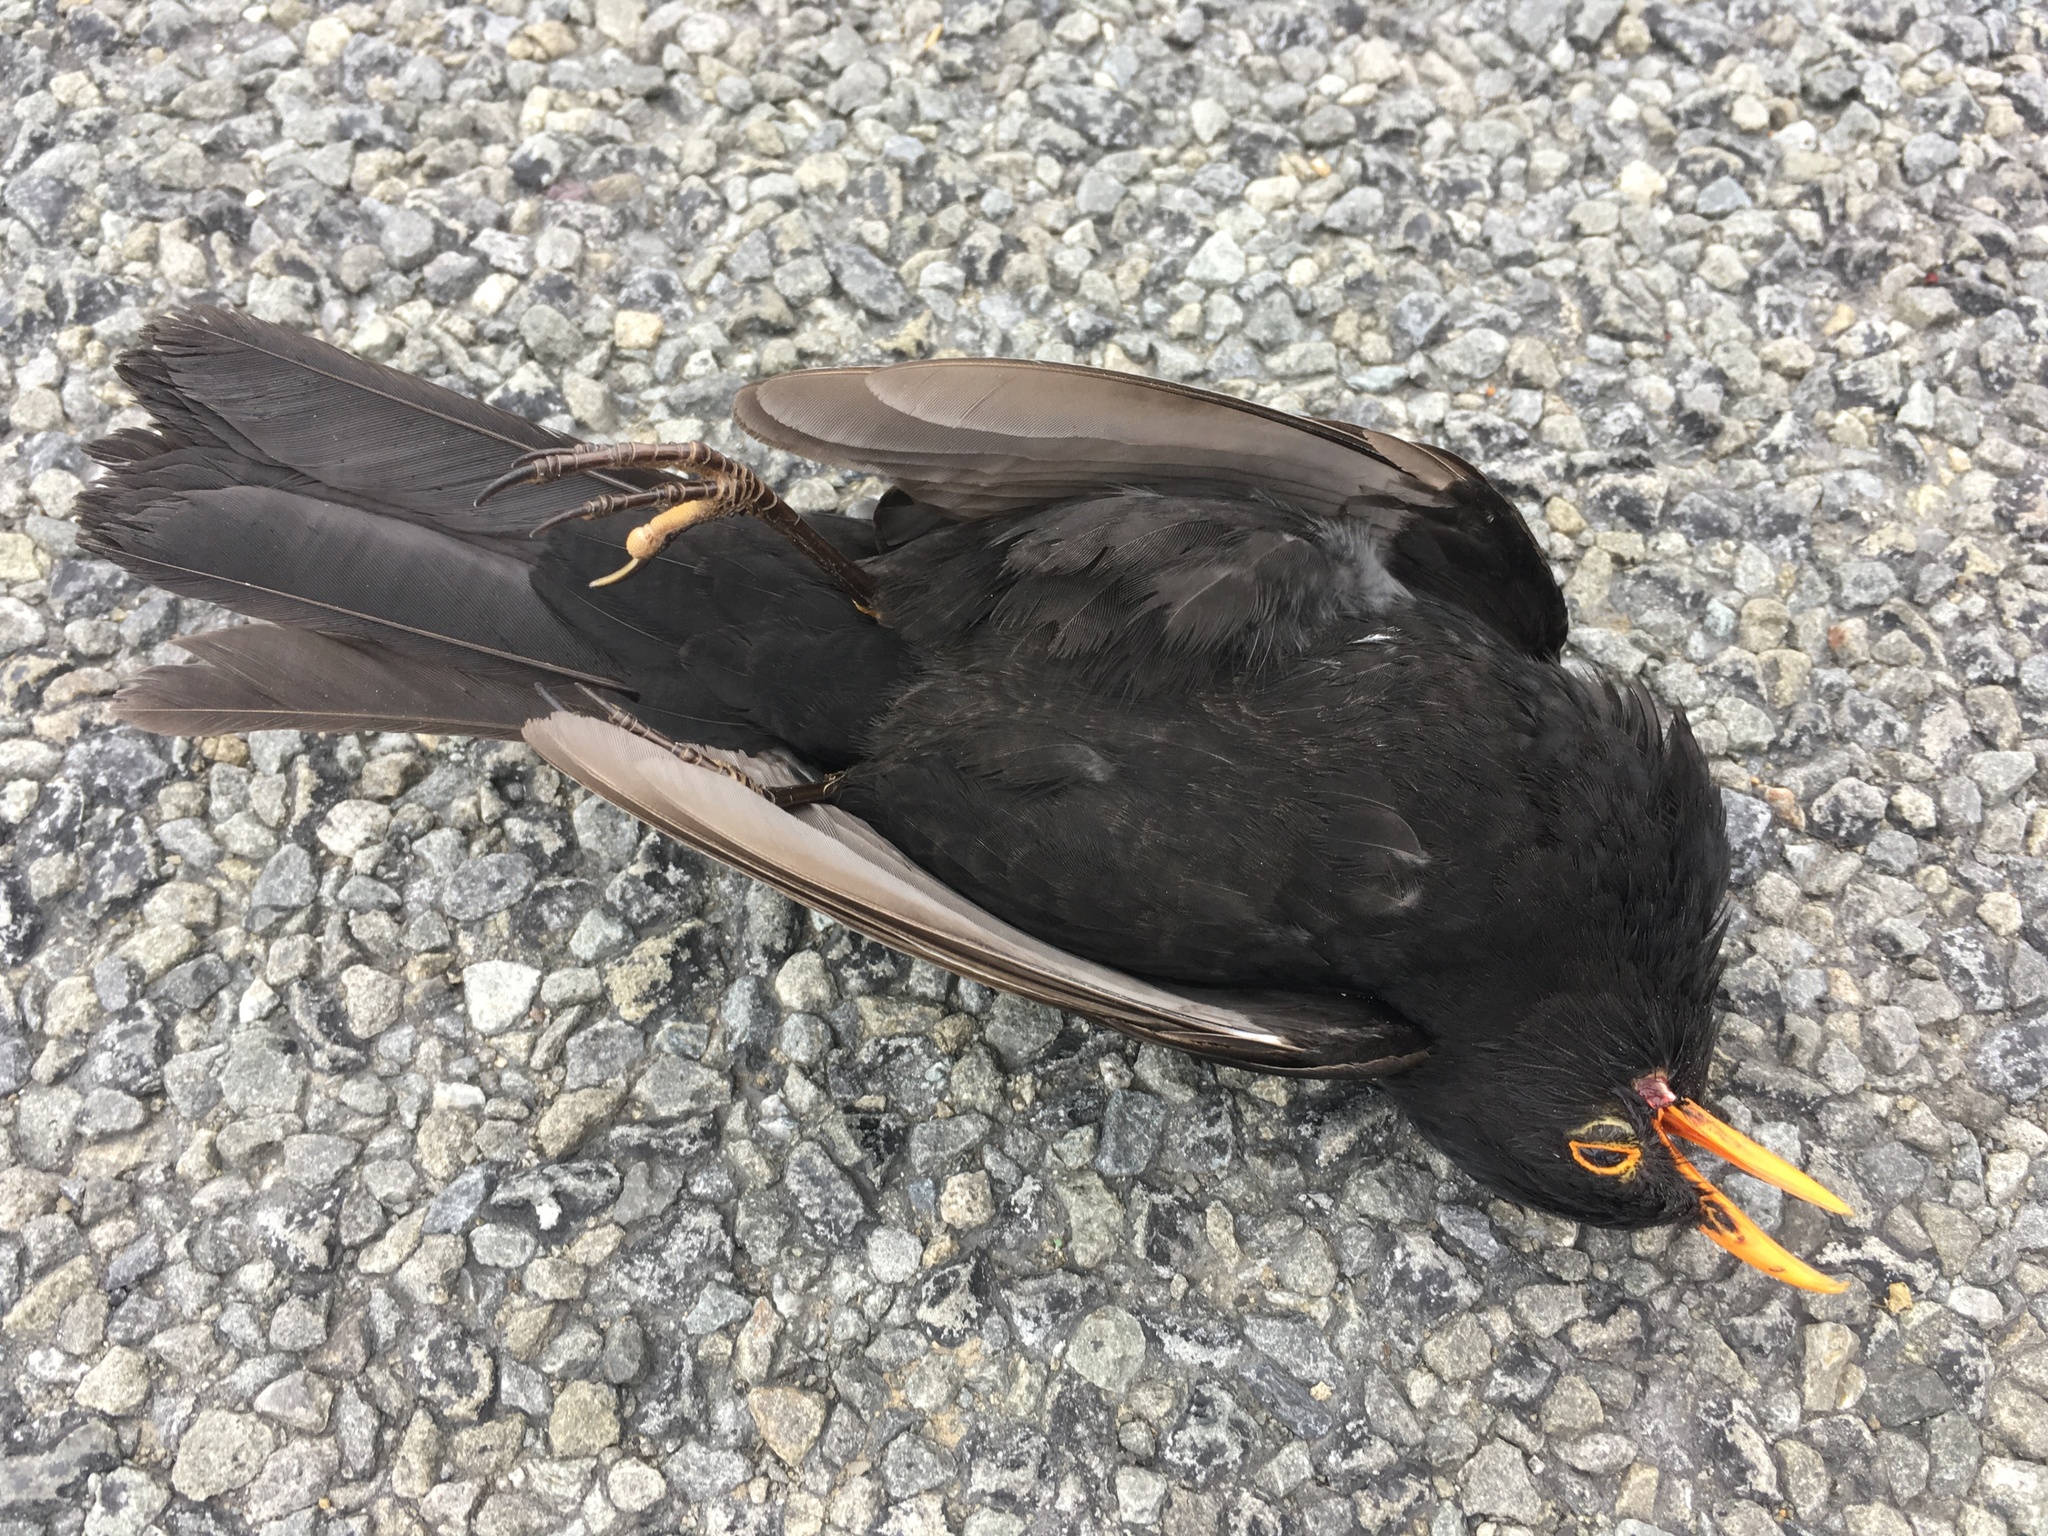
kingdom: Animalia
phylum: Chordata
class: Aves
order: Passeriformes
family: Turdidae
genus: Turdus
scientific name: Turdus merula
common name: Common blackbird
